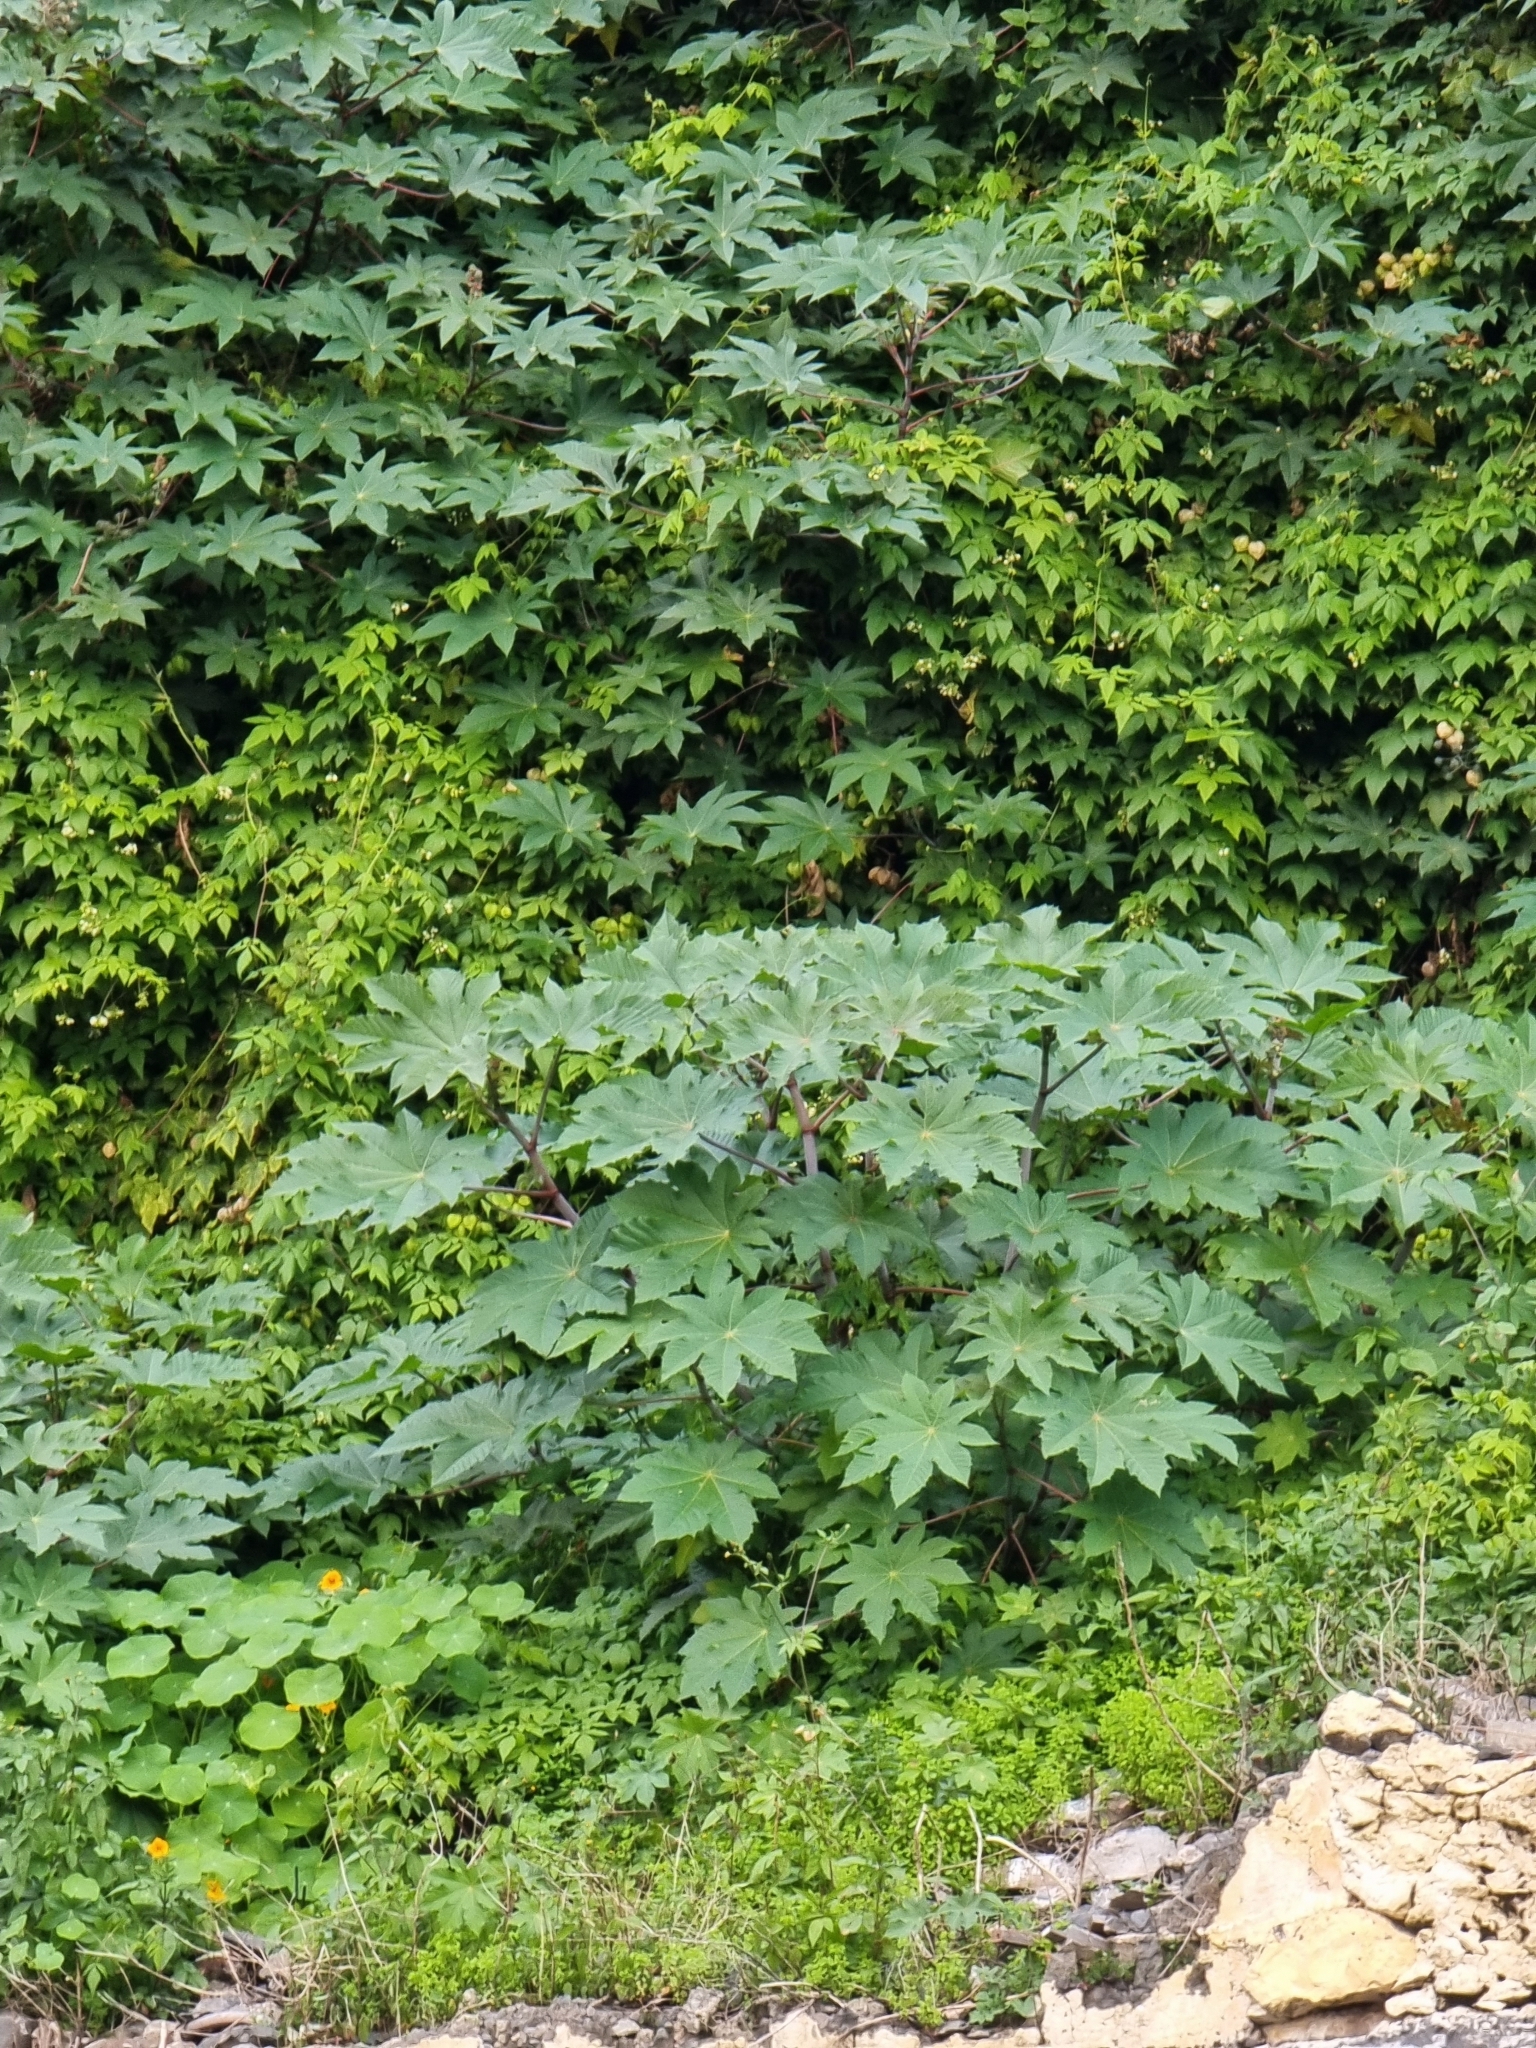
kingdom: Plantae
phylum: Tracheophyta
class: Magnoliopsida
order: Malpighiales
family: Euphorbiaceae
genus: Ricinus
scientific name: Ricinus communis
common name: Castor-oil-plant
